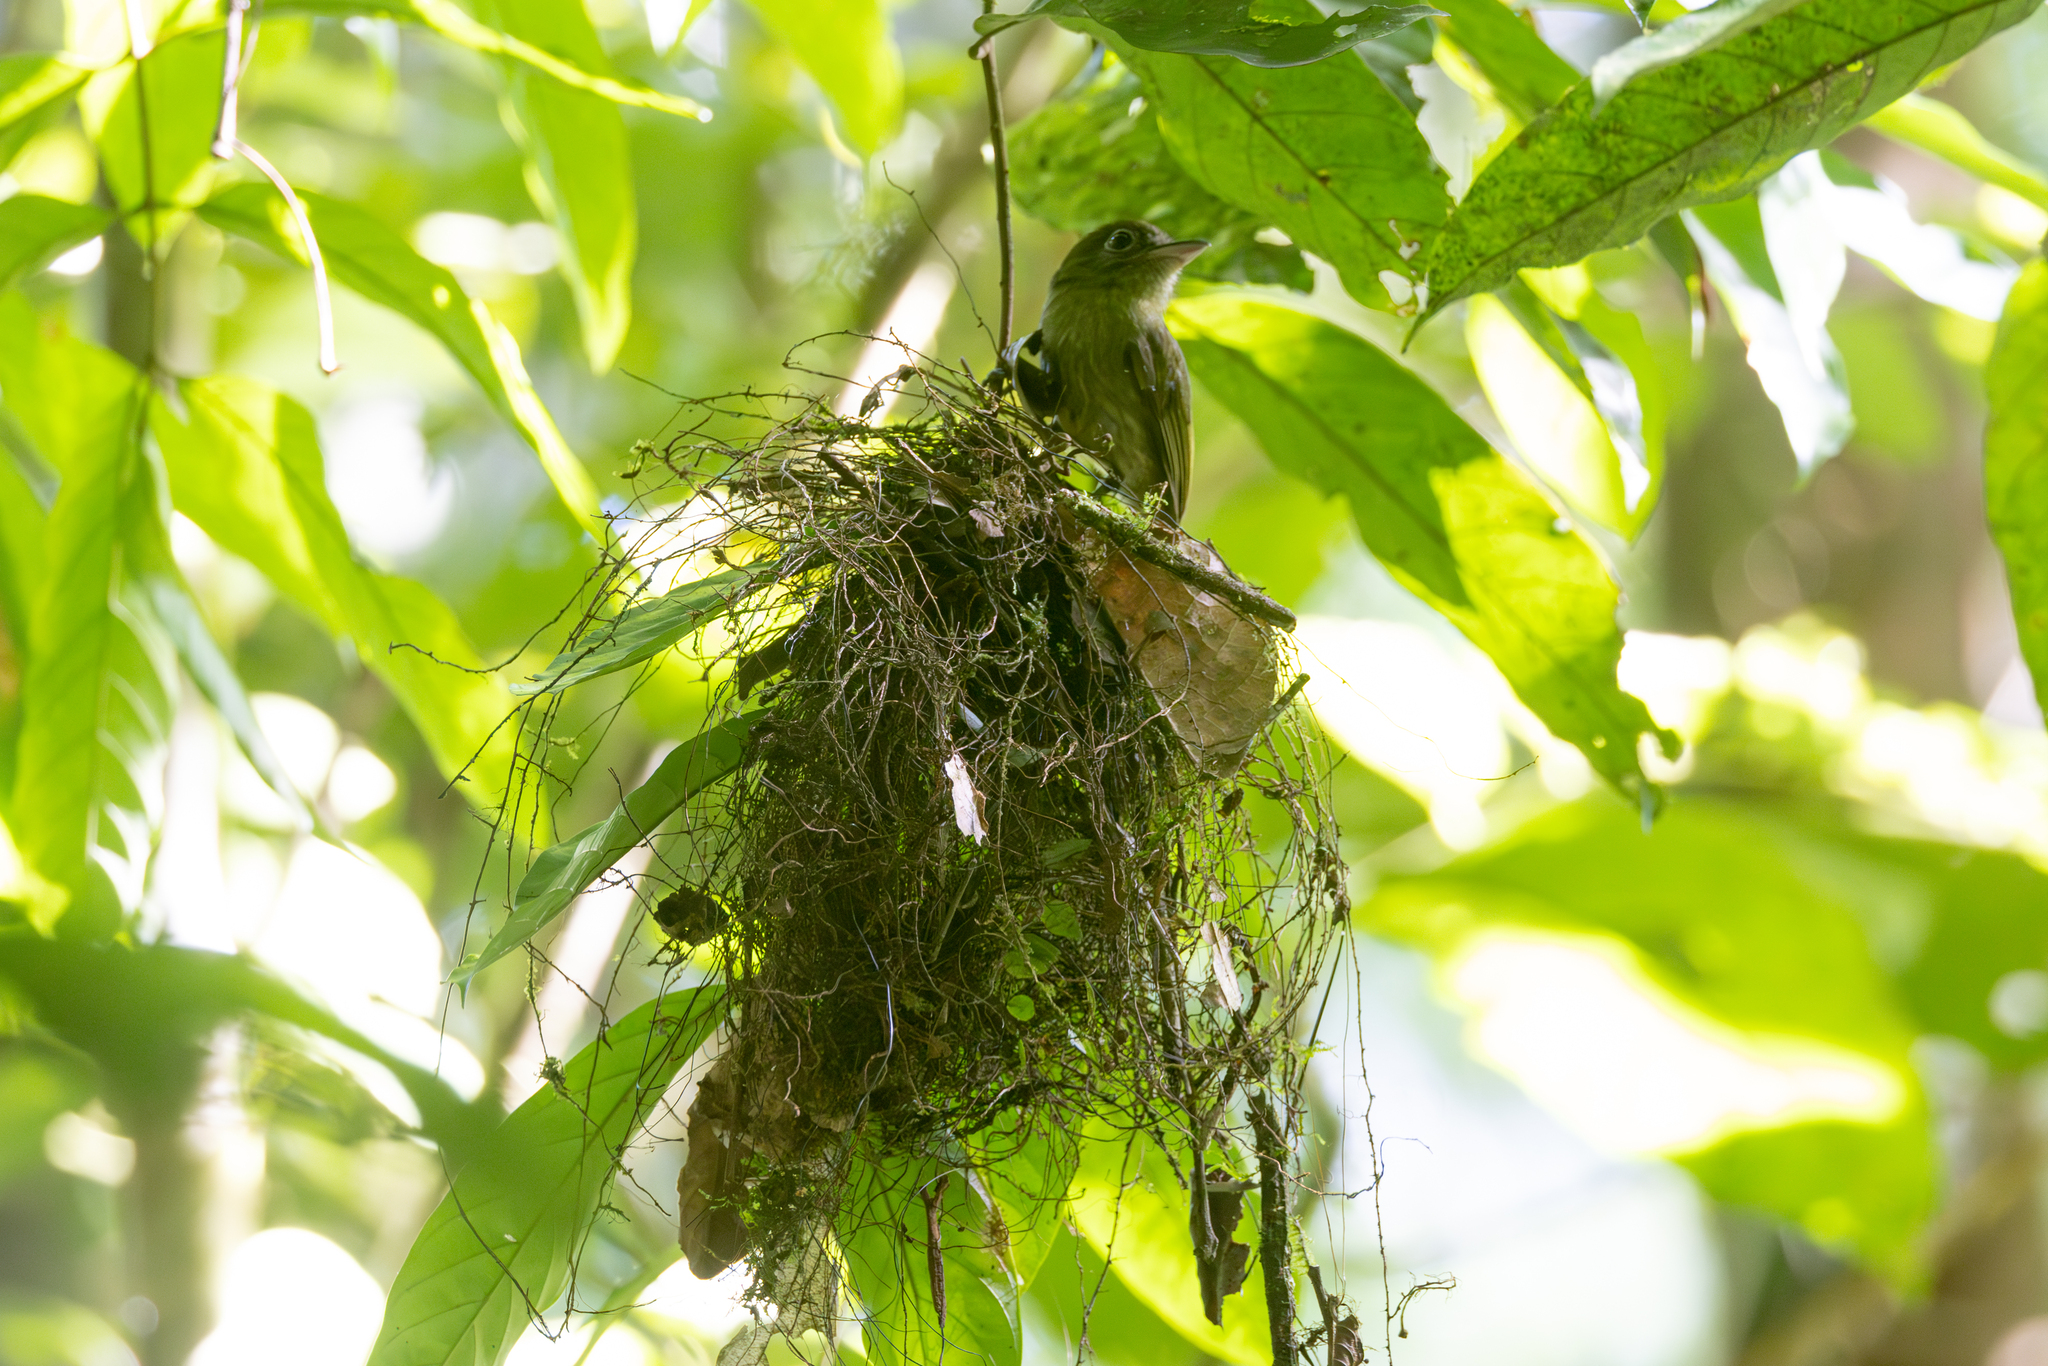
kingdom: Animalia
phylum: Chordata
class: Aves
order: Passeriformes
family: Tyrannidae
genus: Rhynchocyclus
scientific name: Rhynchocyclus brevirostris
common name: Eye-ringed flatbill
